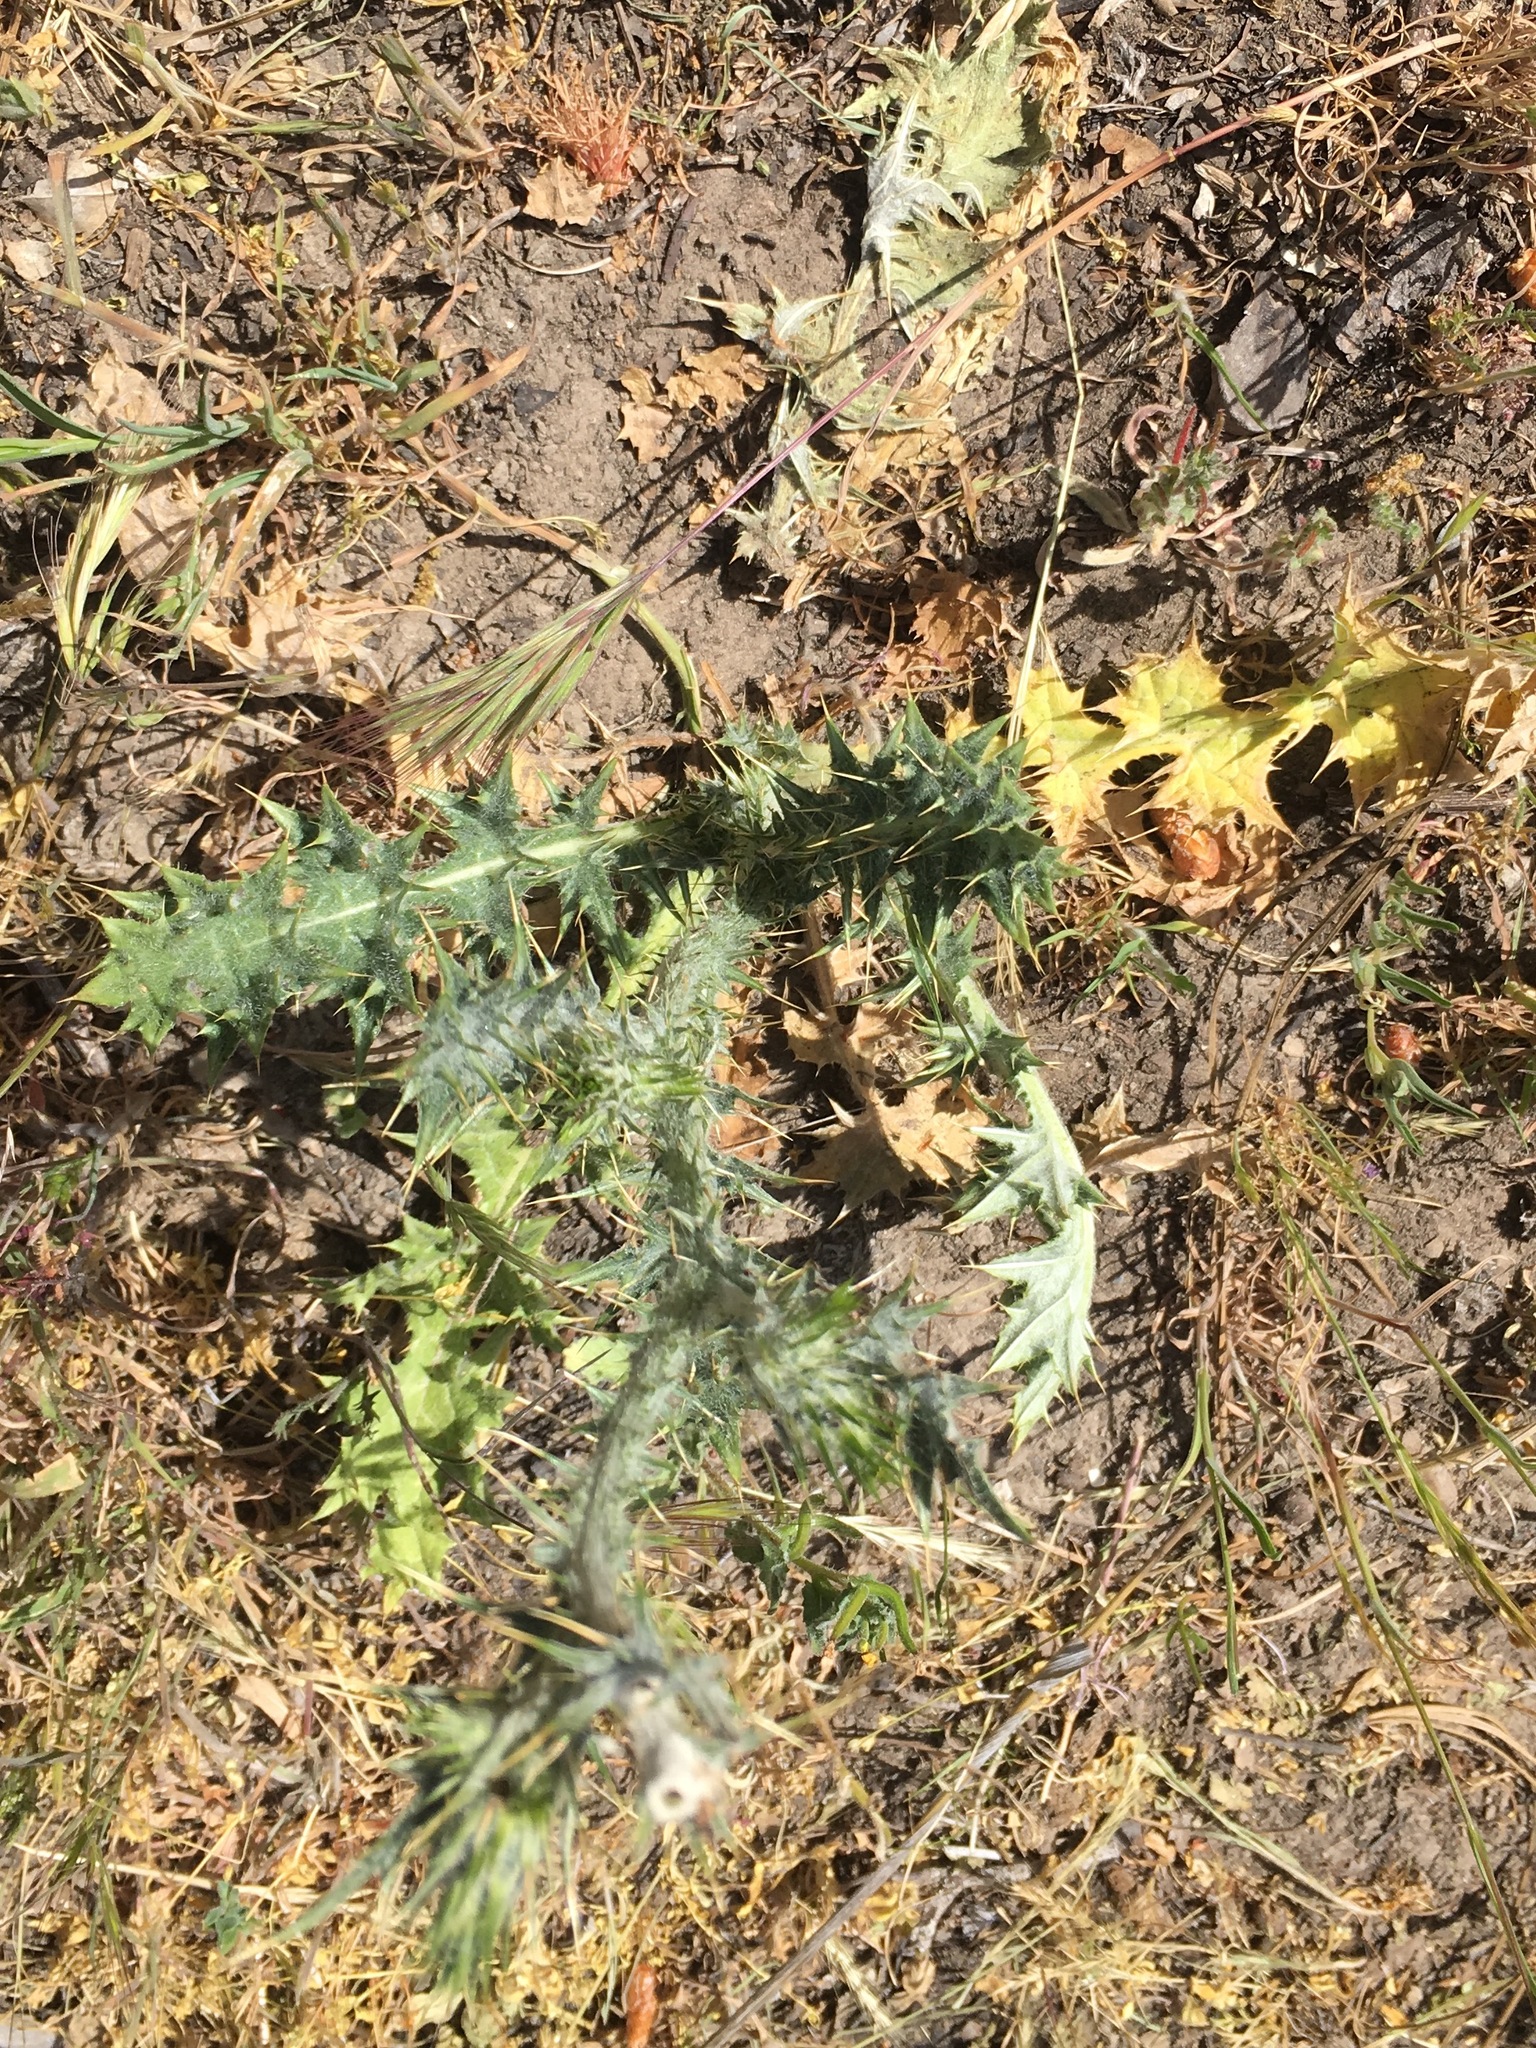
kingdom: Plantae
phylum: Tracheophyta
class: Magnoliopsida
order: Asterales
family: Asteraceae
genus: Carduus
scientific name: Carduus pycnocephalus
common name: Plymouth thistle
